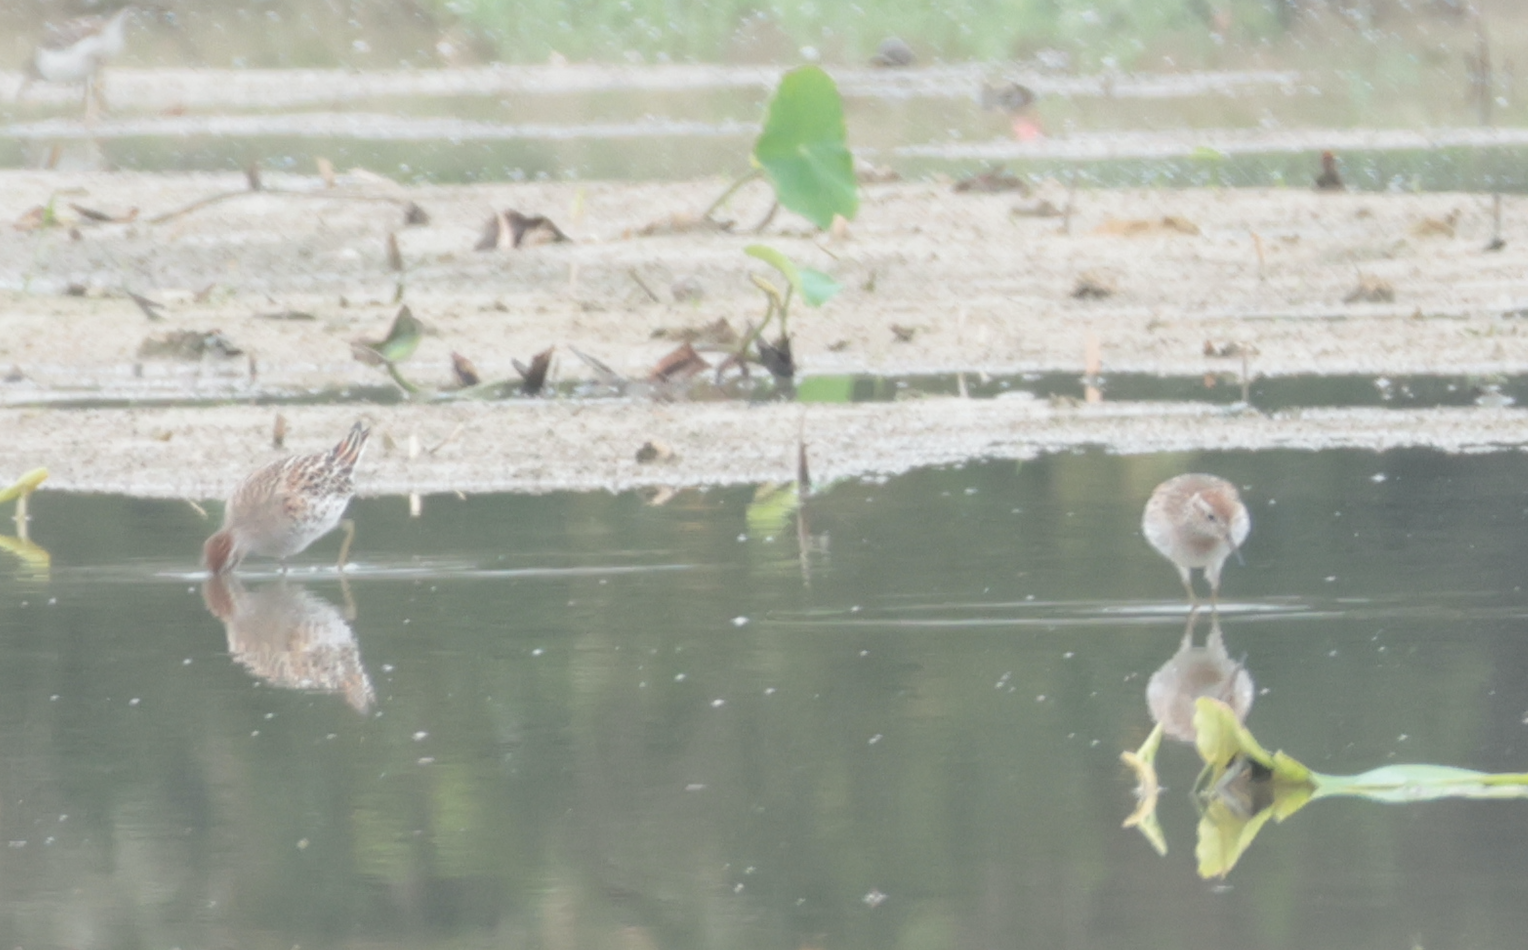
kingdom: Animalia
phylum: Chordata
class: Aves
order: Charadriiformes
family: Scolopacidae
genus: Calidris
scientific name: Calidris acuminata
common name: Sharp-tailed sandpiper
